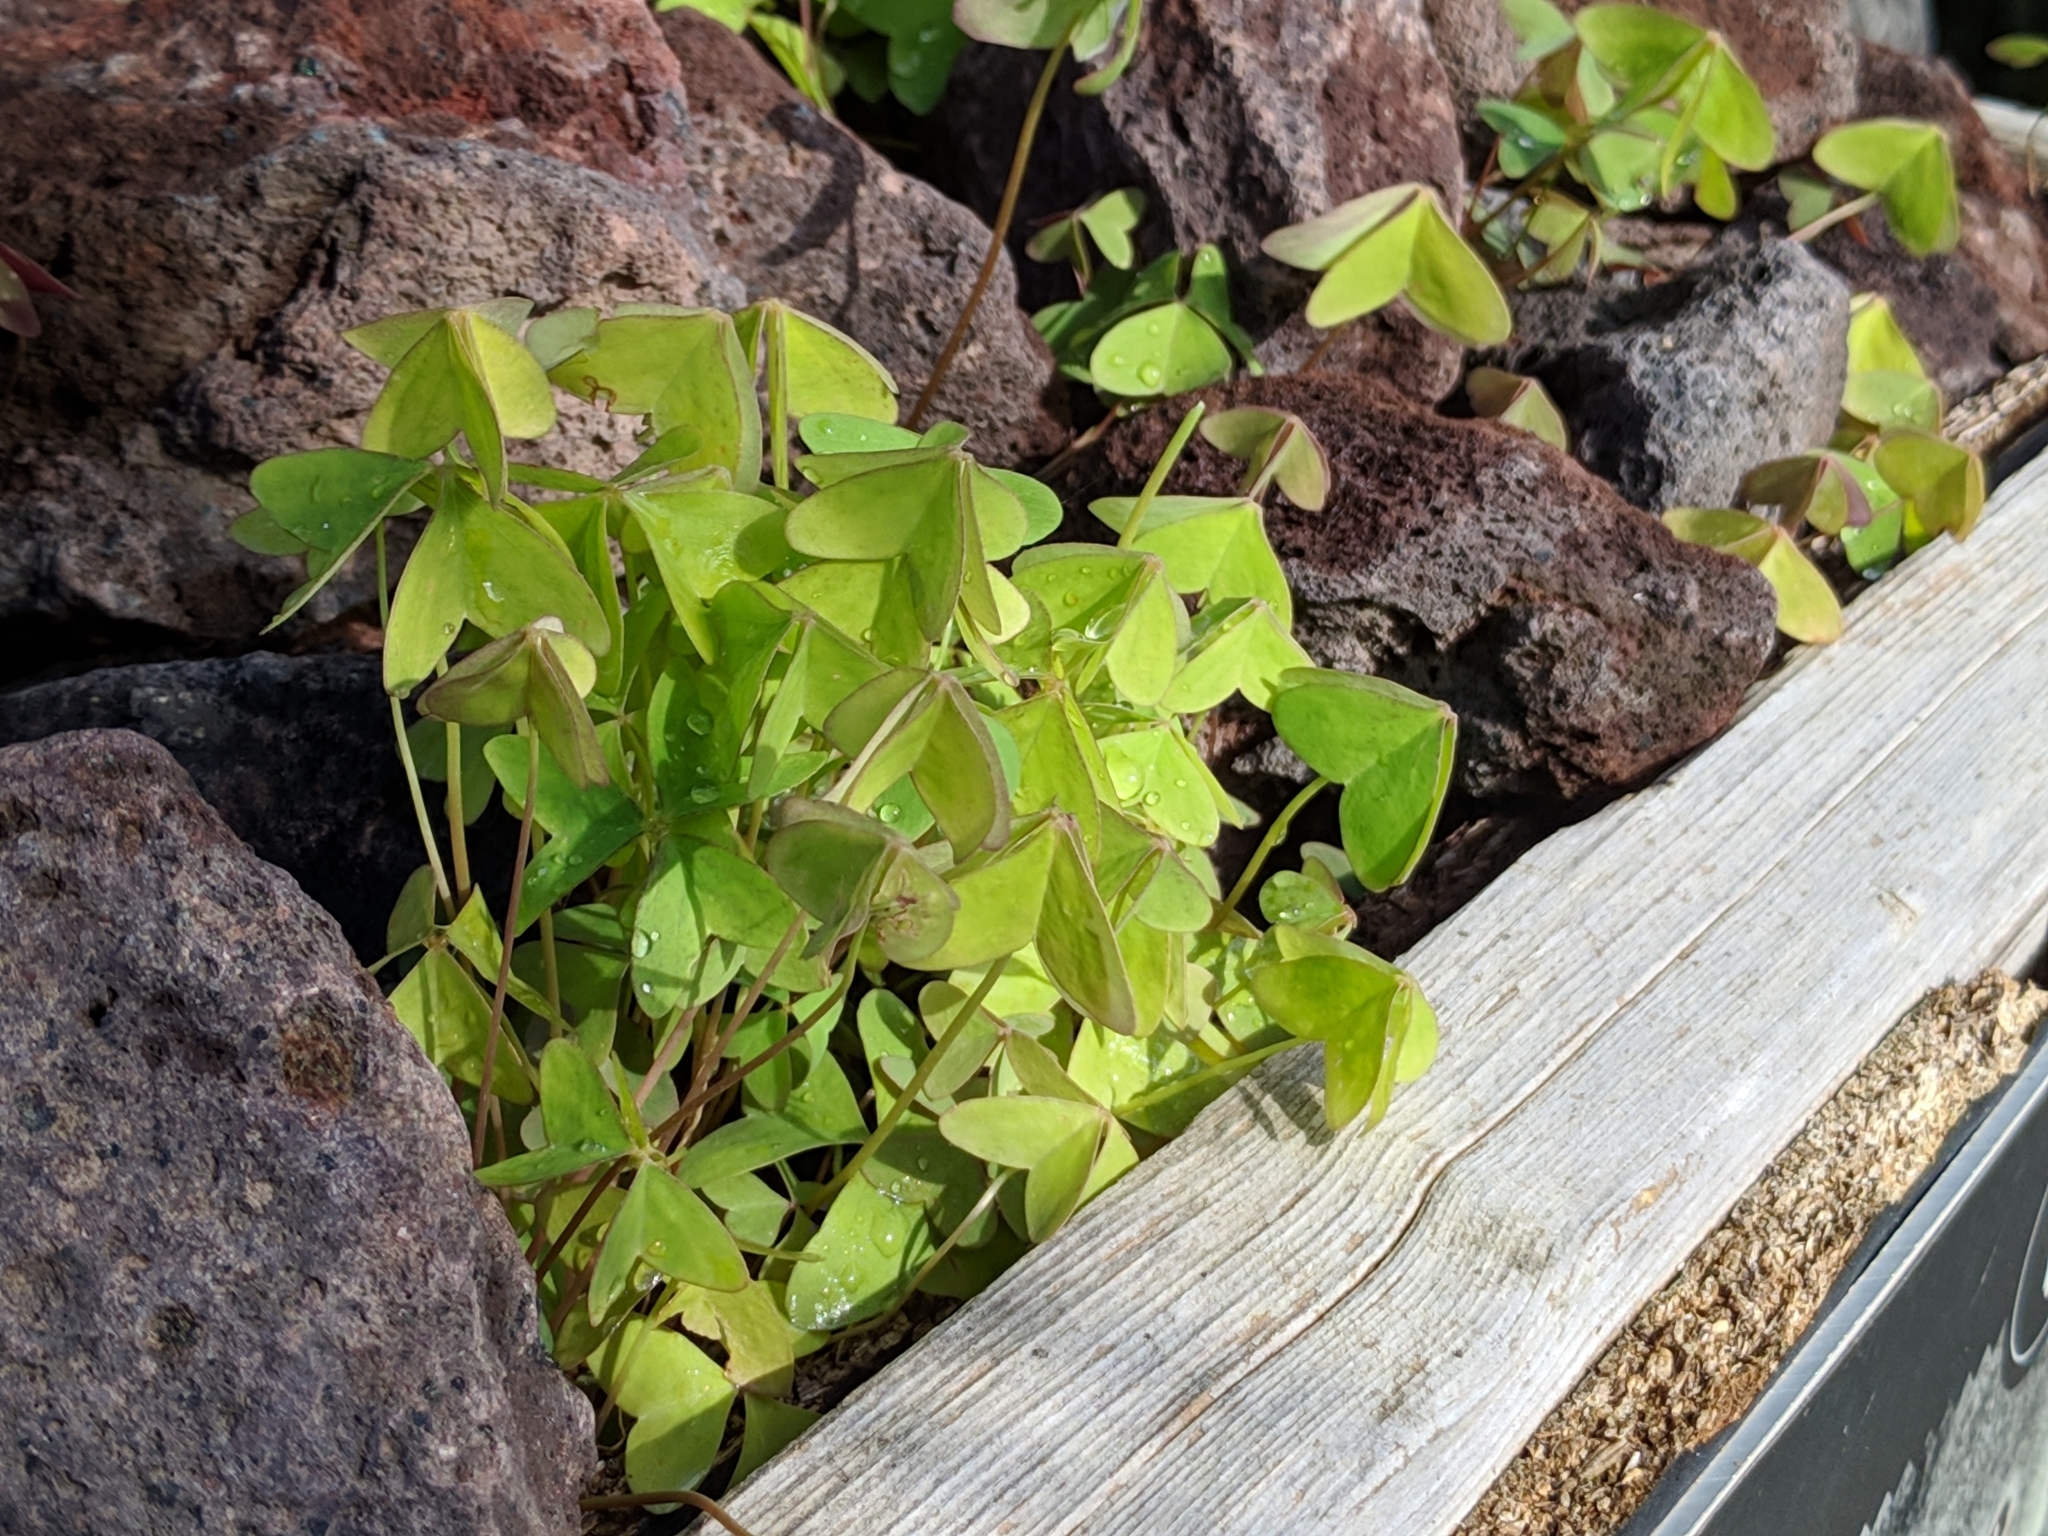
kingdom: Plantae
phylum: Tracheophyta
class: Magnoliopsida
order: Oxalidales
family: Oxalidaceae
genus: Oxalis
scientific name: Oxalis latifolia
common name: Garden pink-sorrel
